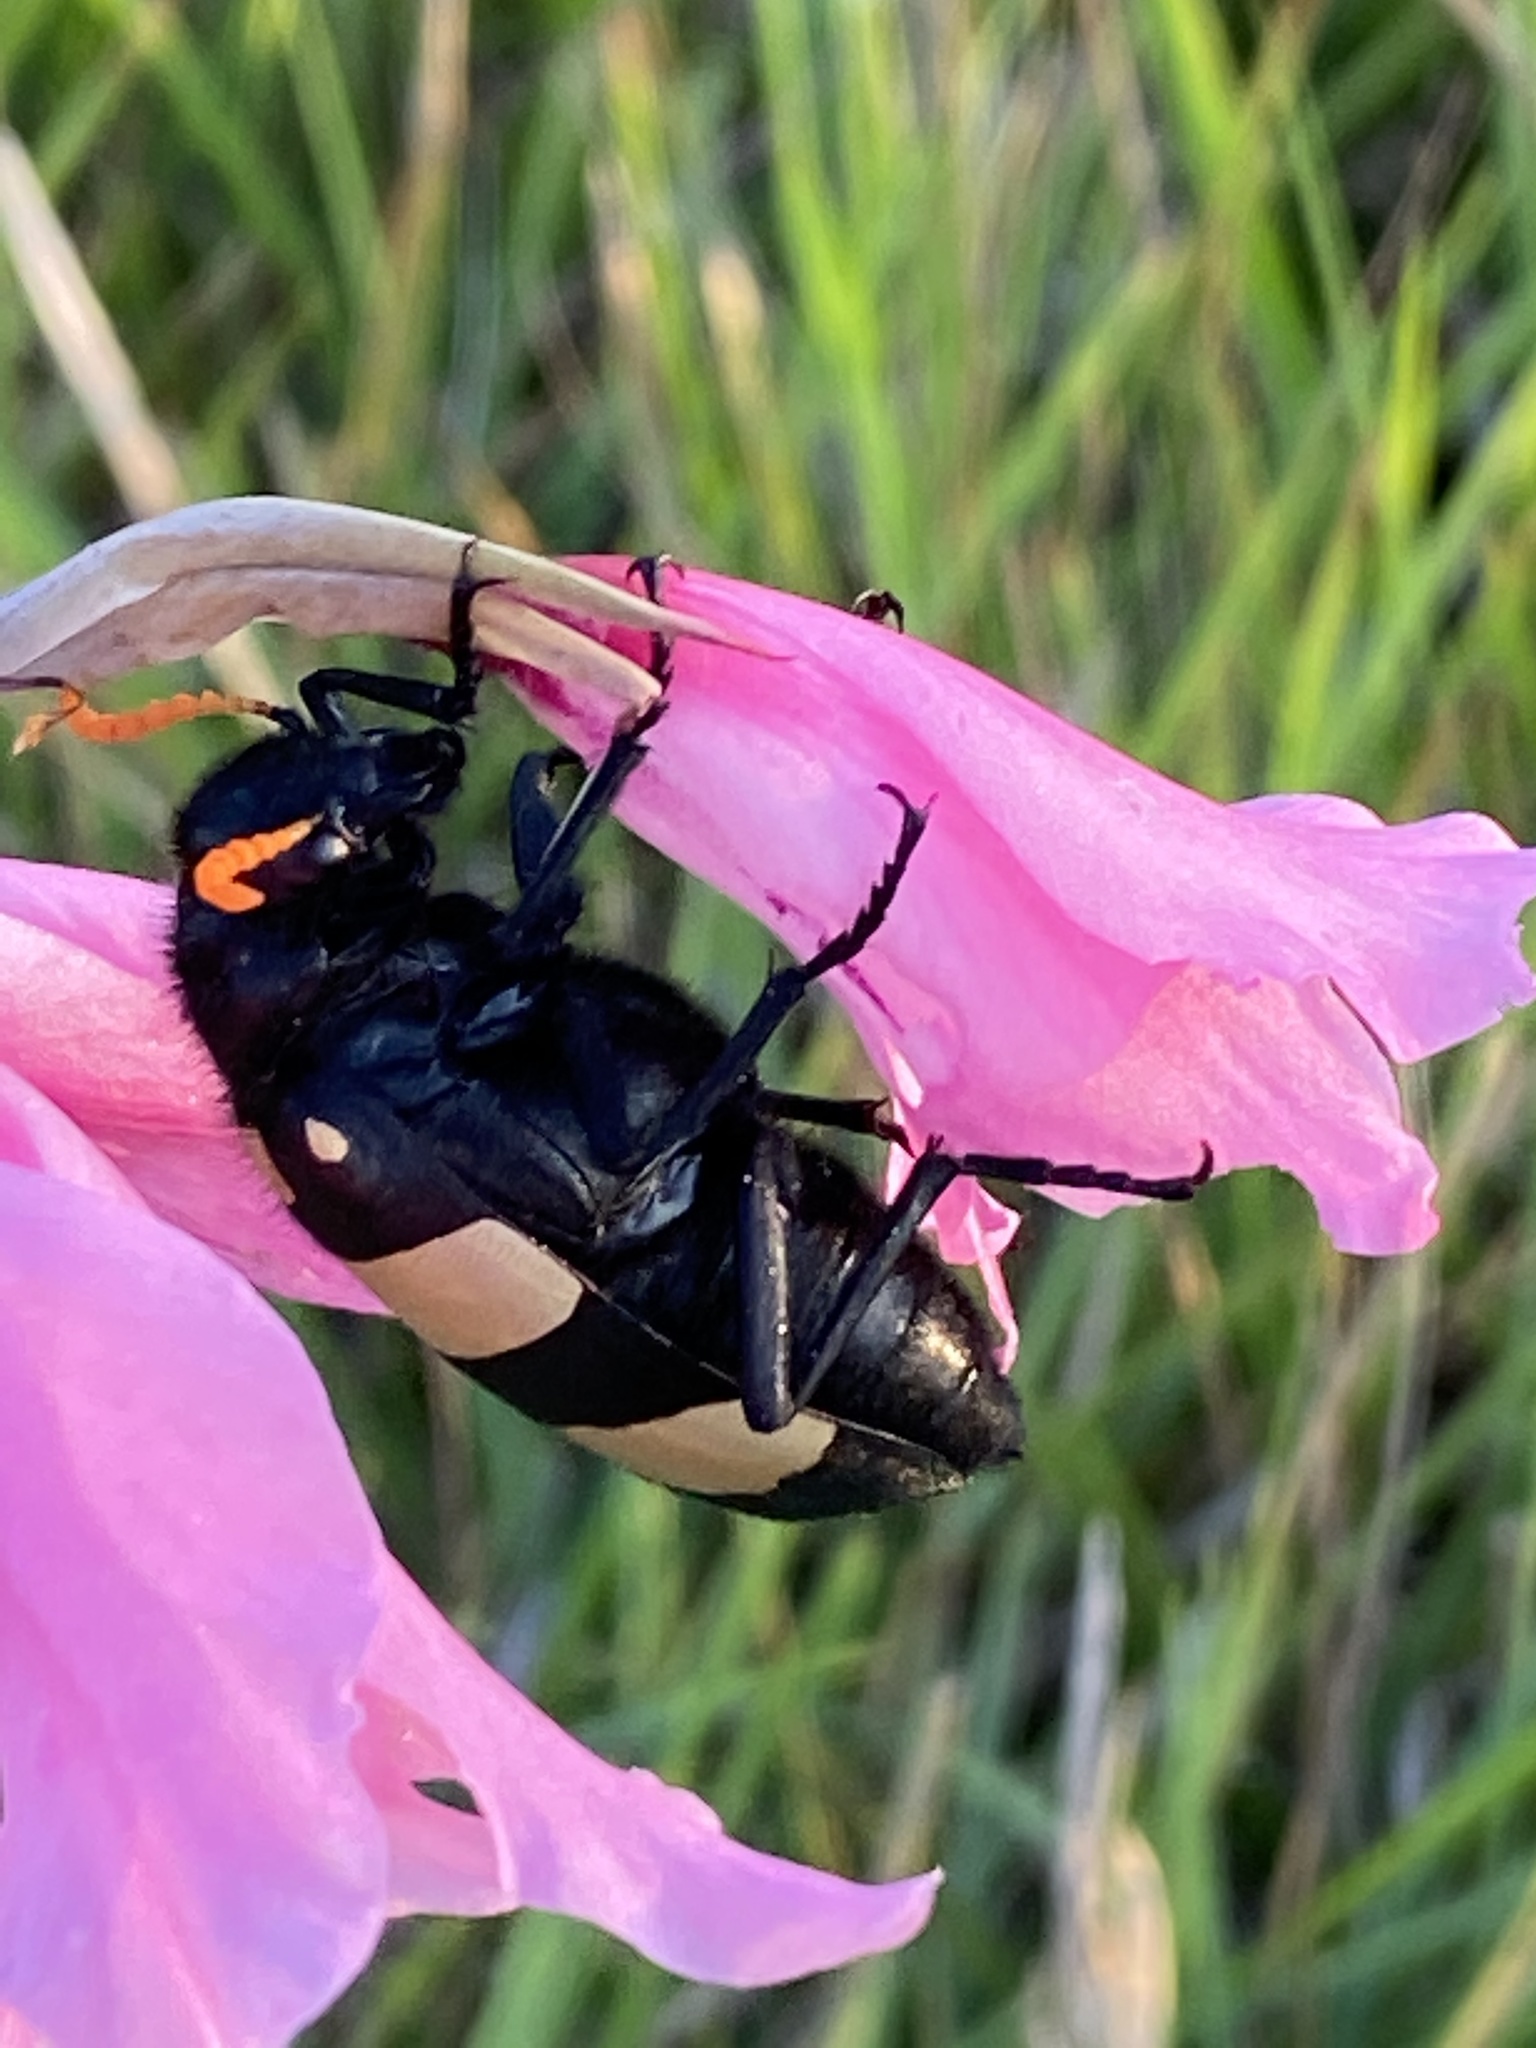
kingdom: Animalia
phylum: Arthropoda
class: Insecta
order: Coleoptera
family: Meloidae
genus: Hycleus
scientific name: Hycleus
